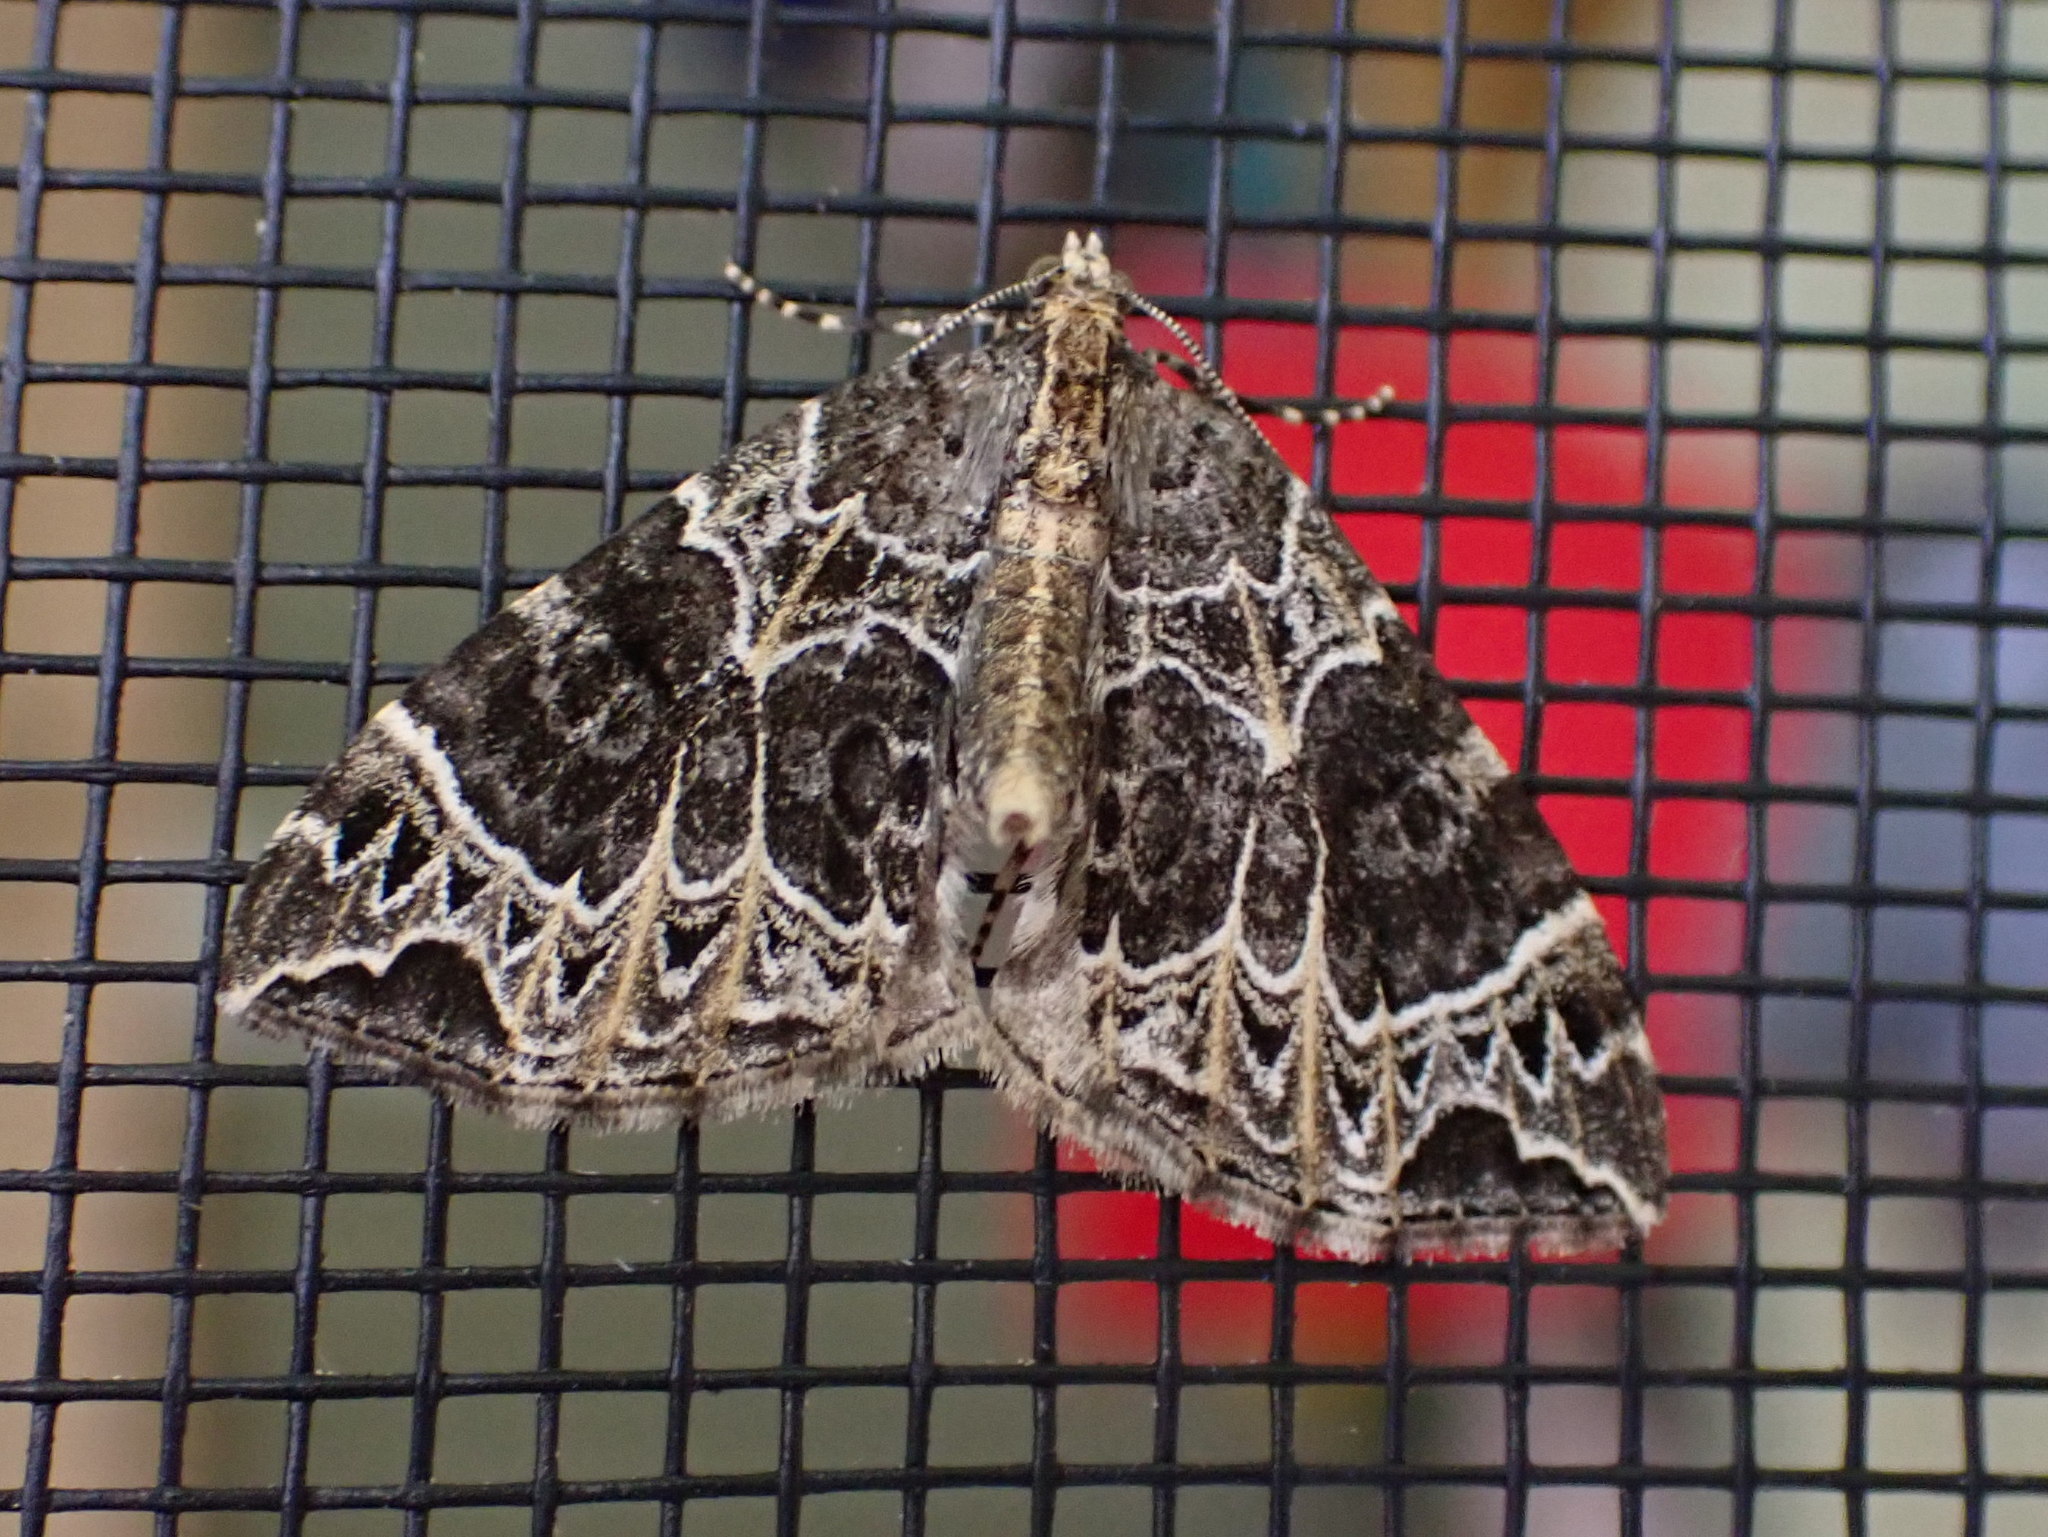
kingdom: Animalia
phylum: Arthropoda
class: Insecta
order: Lepidoptera
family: Geometridae
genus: Ecliptopera
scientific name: Ecliptopera silaceata
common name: Small phoenix
